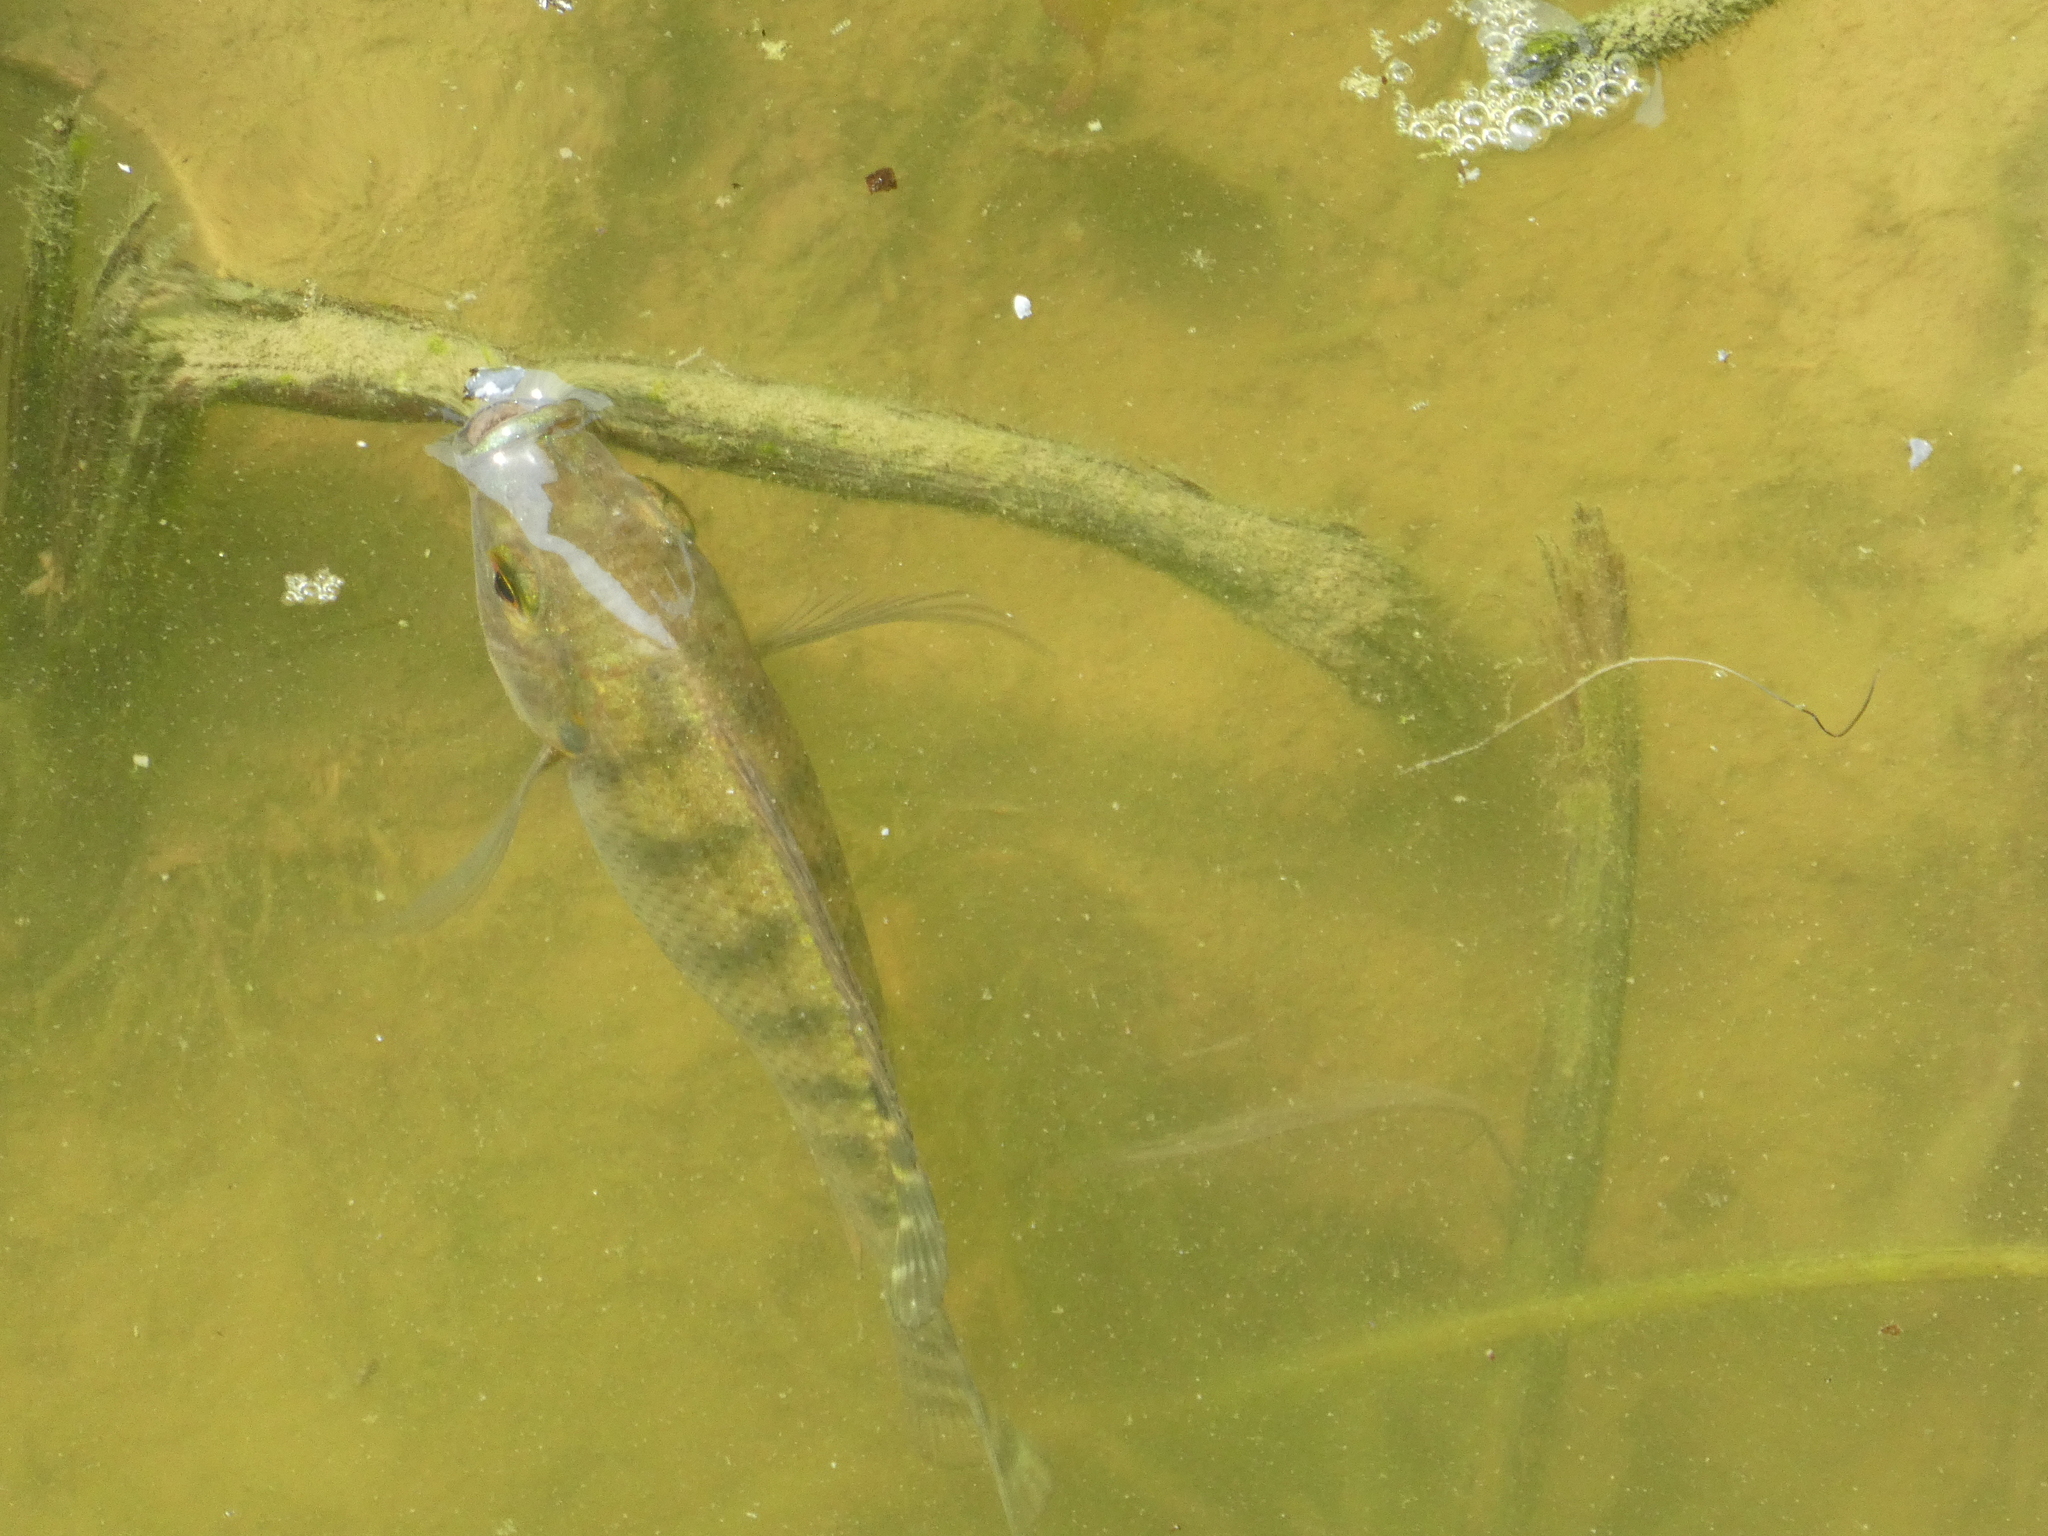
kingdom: Animalia
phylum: Chordata
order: Perciformes
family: Cichlidae
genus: Oreochromis
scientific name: Oreochromis niloticus
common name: Nile tilapia
